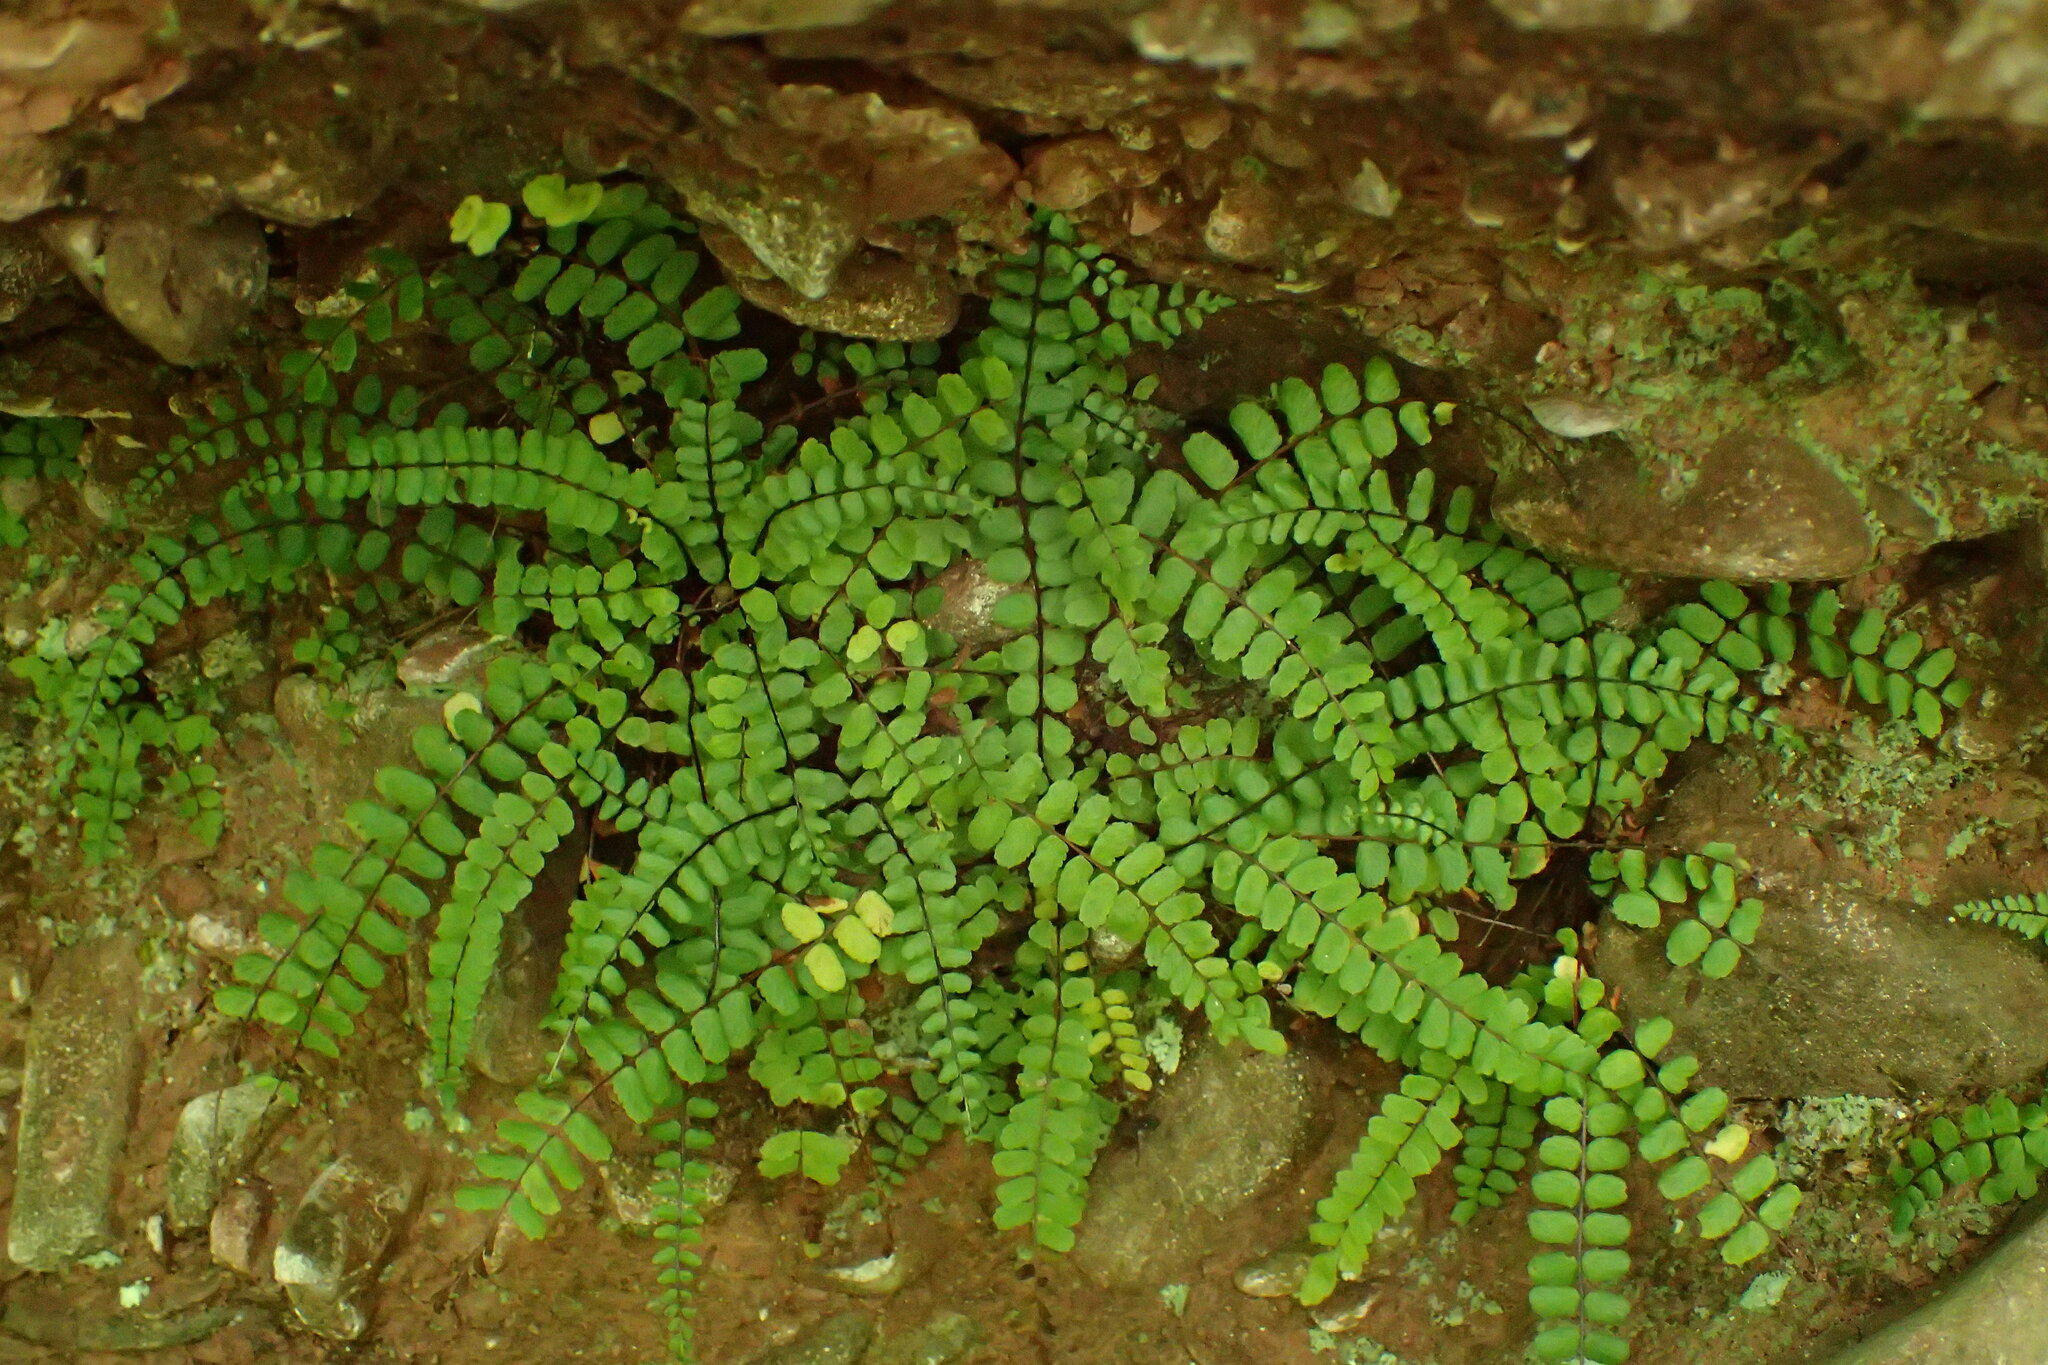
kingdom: Plantae
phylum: Tracheophyta
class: Polypodiopsida
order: Polypodiales
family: Aspleniaceae
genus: Asplenium
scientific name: Asplenium trichomanes
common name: Maidenhair spleenwort
